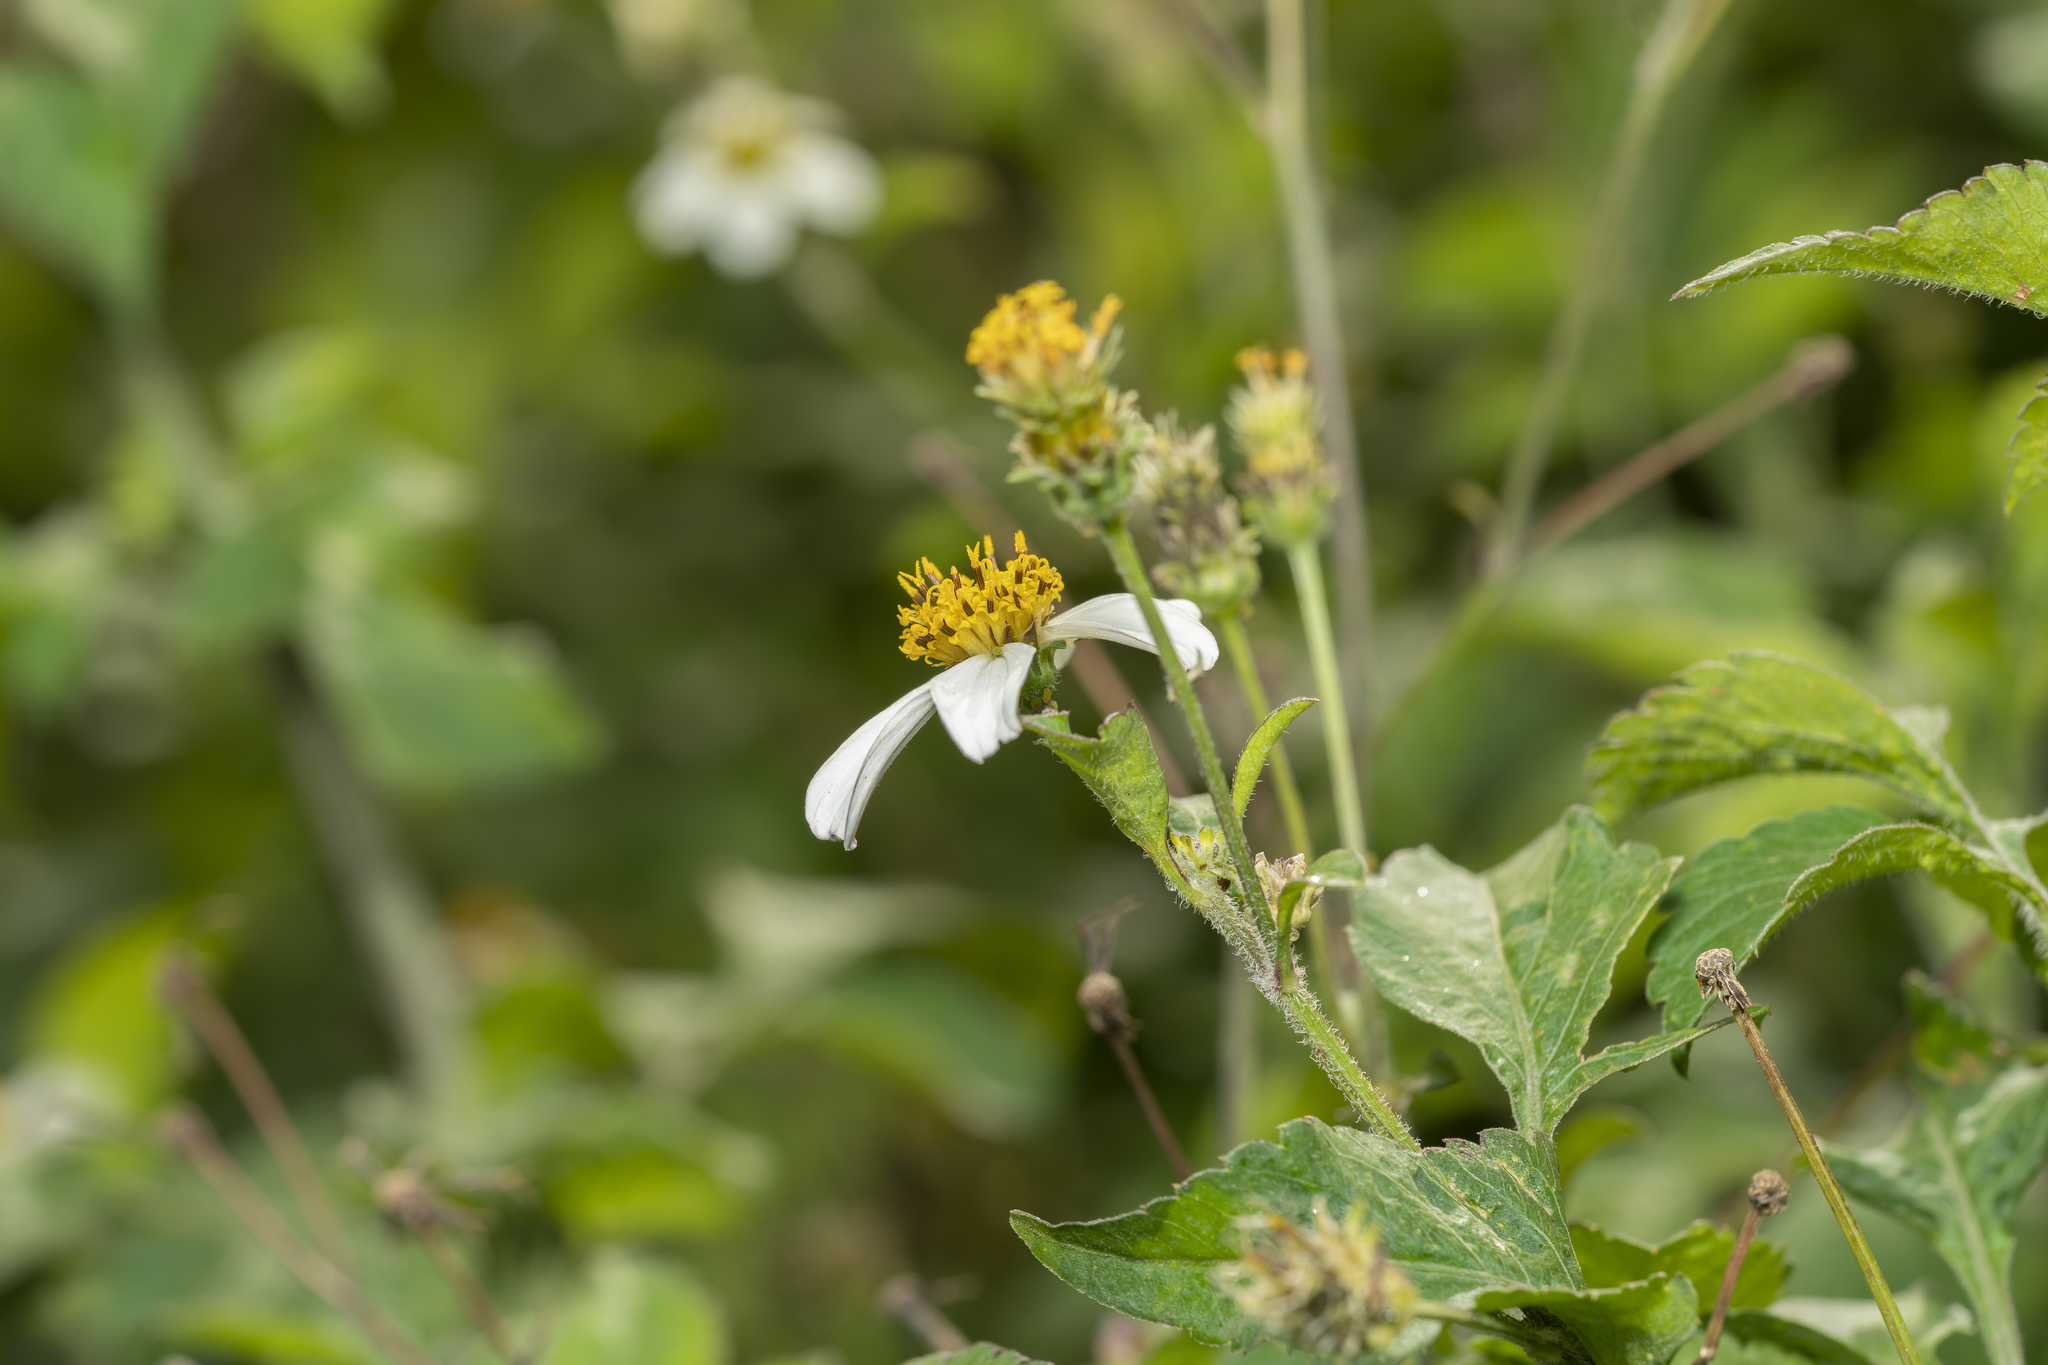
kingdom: Plantae
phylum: Tracheophyta
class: Magnoliopsida
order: Asterales
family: Asteraceae
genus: Bidens
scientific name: Bidens alba
